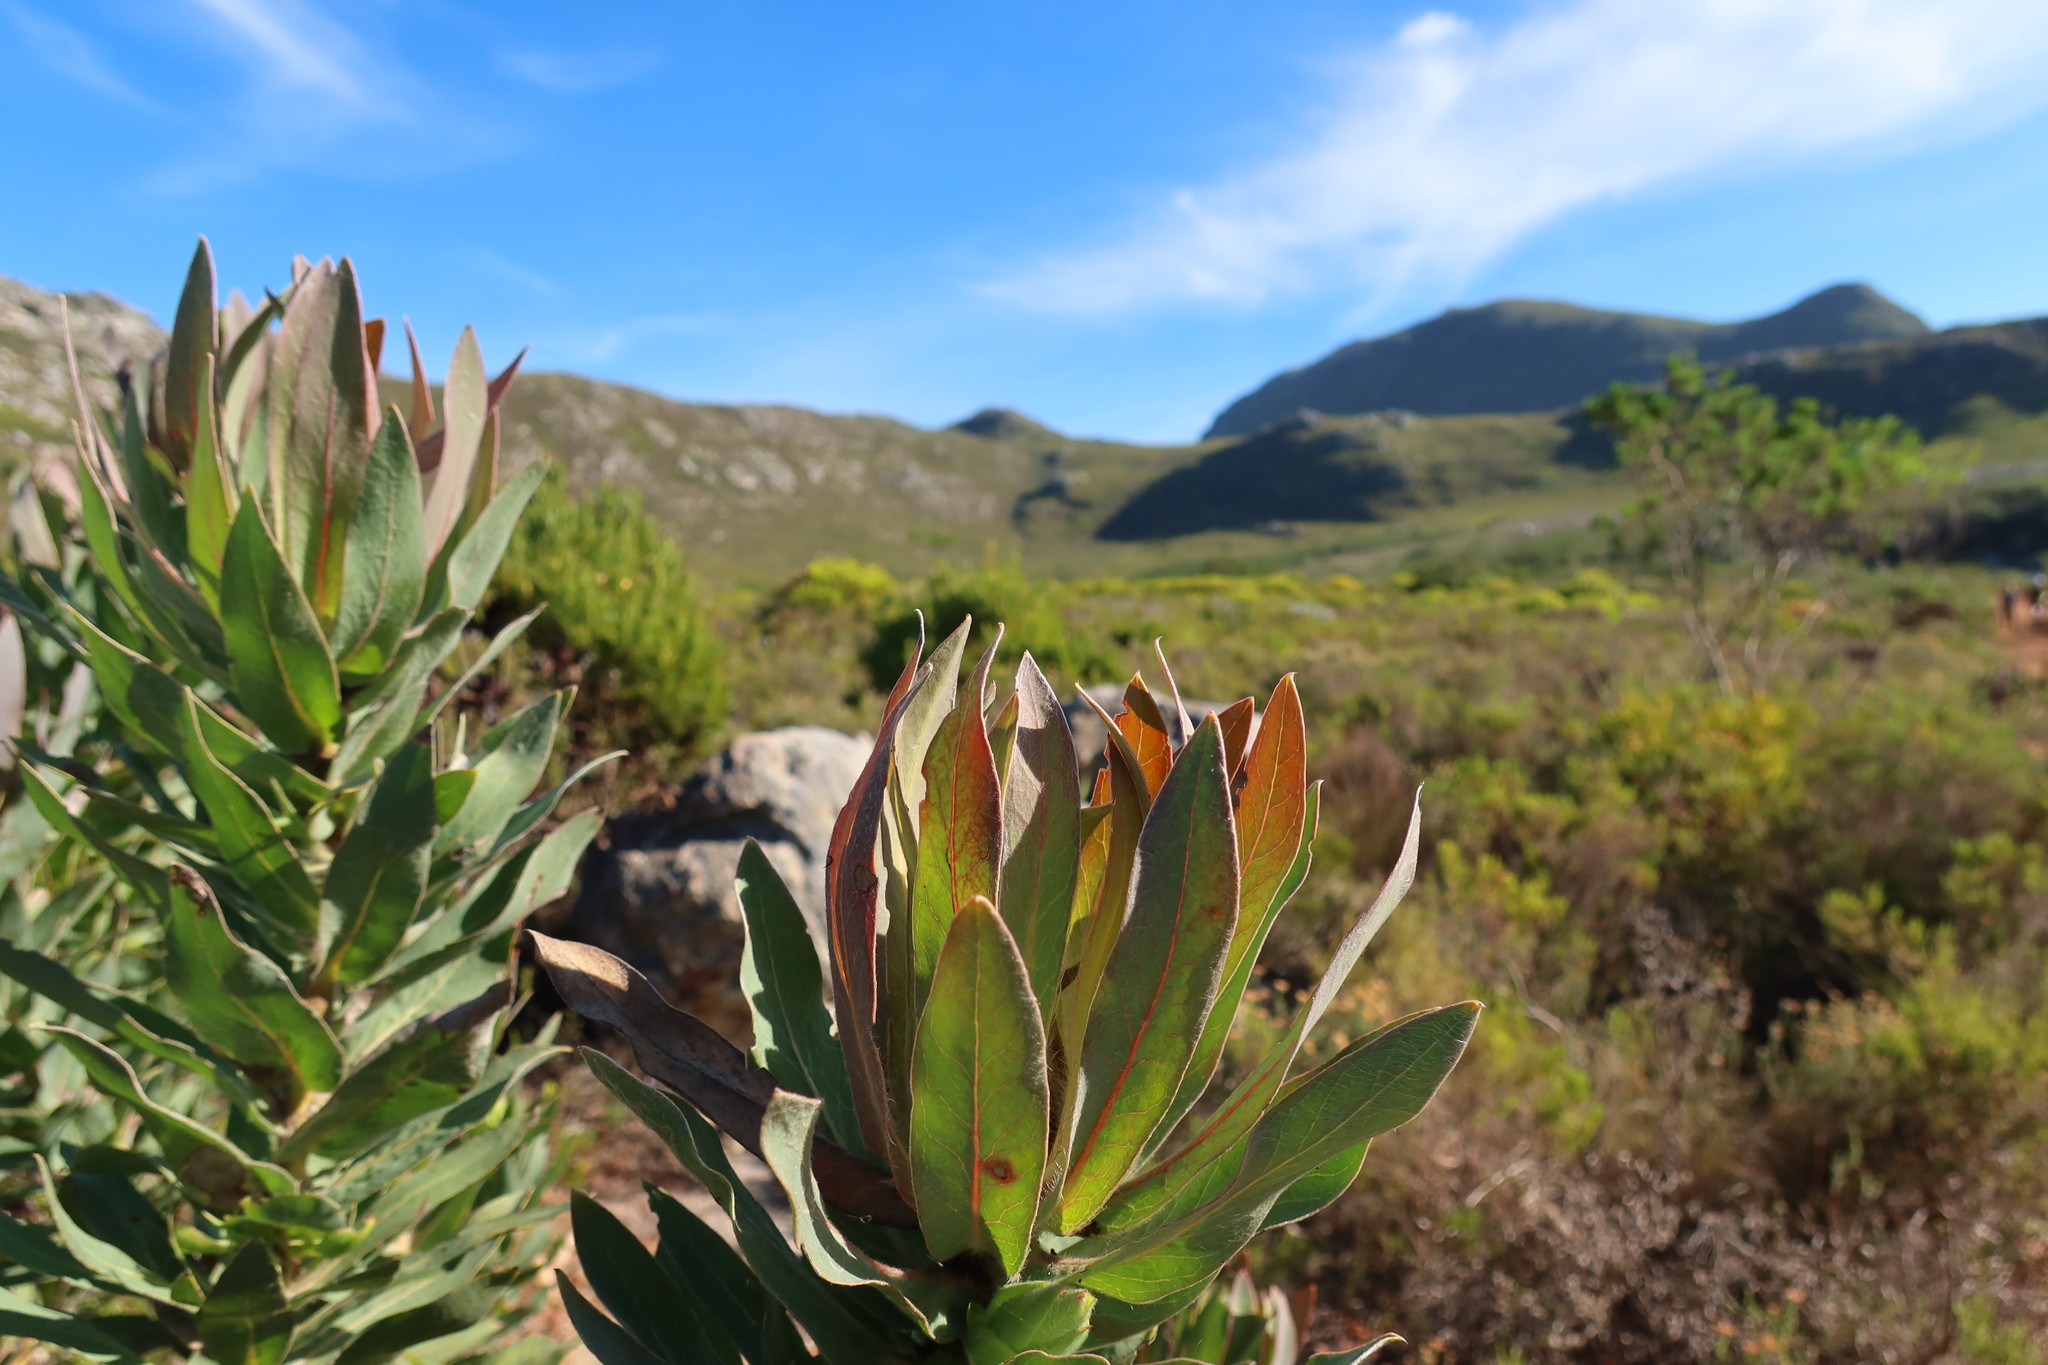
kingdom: Plantae
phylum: Tracheophyta
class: Magnoliopsida
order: Proteales
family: Proteaceae
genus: Protea
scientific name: Protea coronata
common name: Green sugarbush
